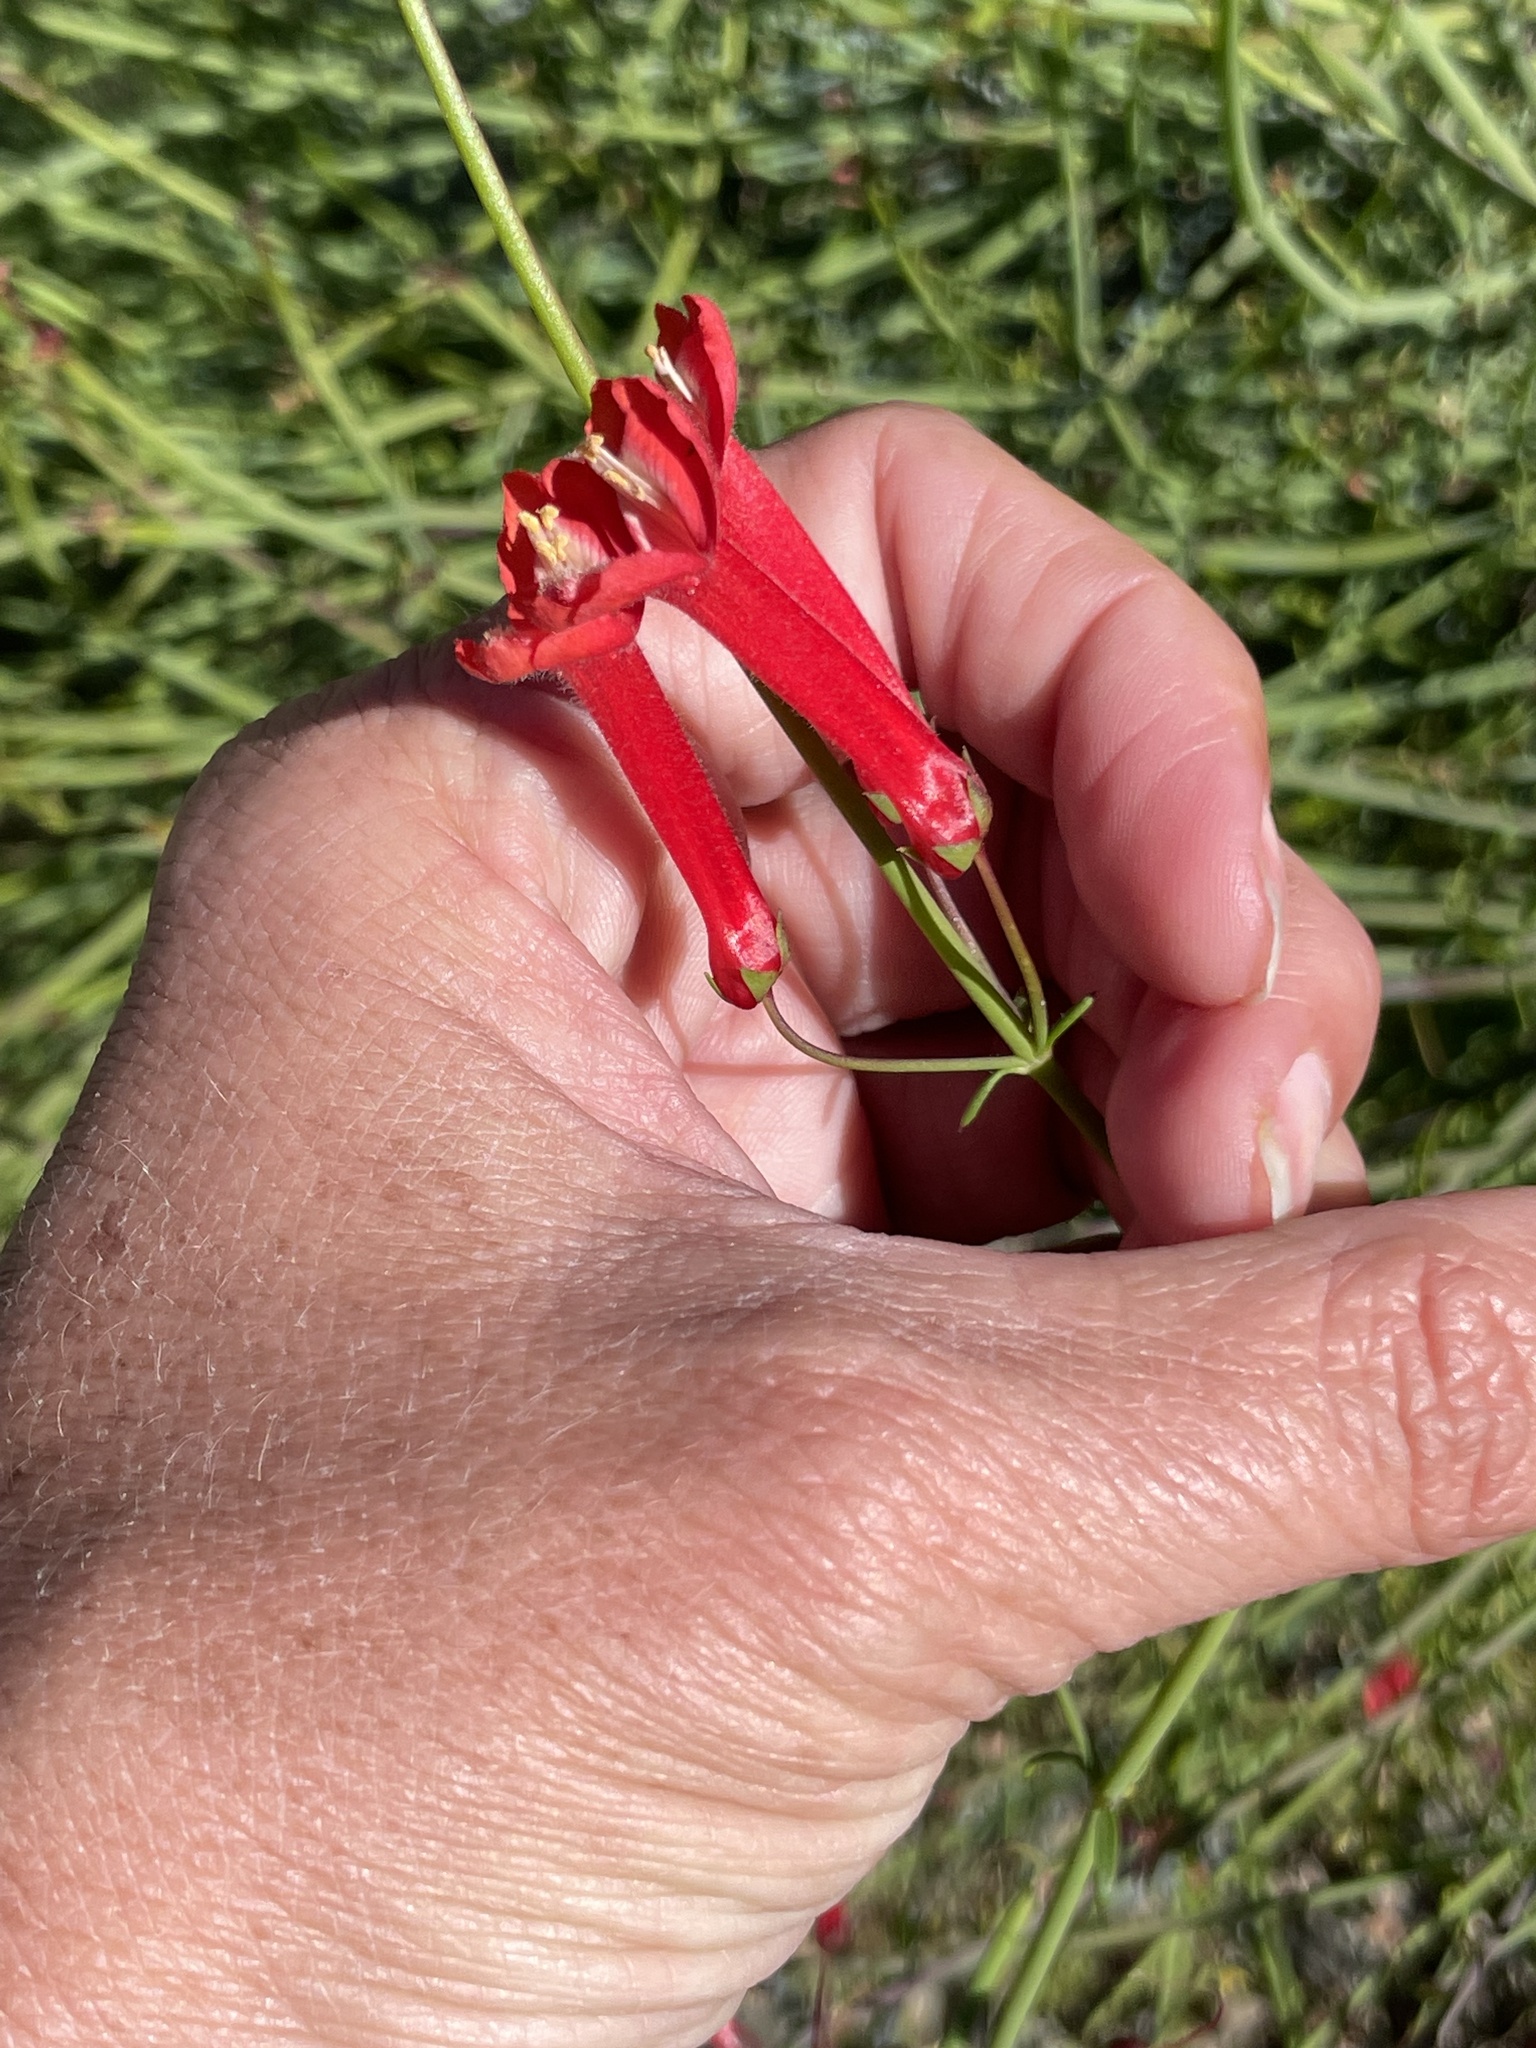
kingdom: Plantae
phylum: Tracheophyta
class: Magnoliopsida
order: Lamiales
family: Plantaginaceae
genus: Gambelia
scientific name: Gambelia juncea
